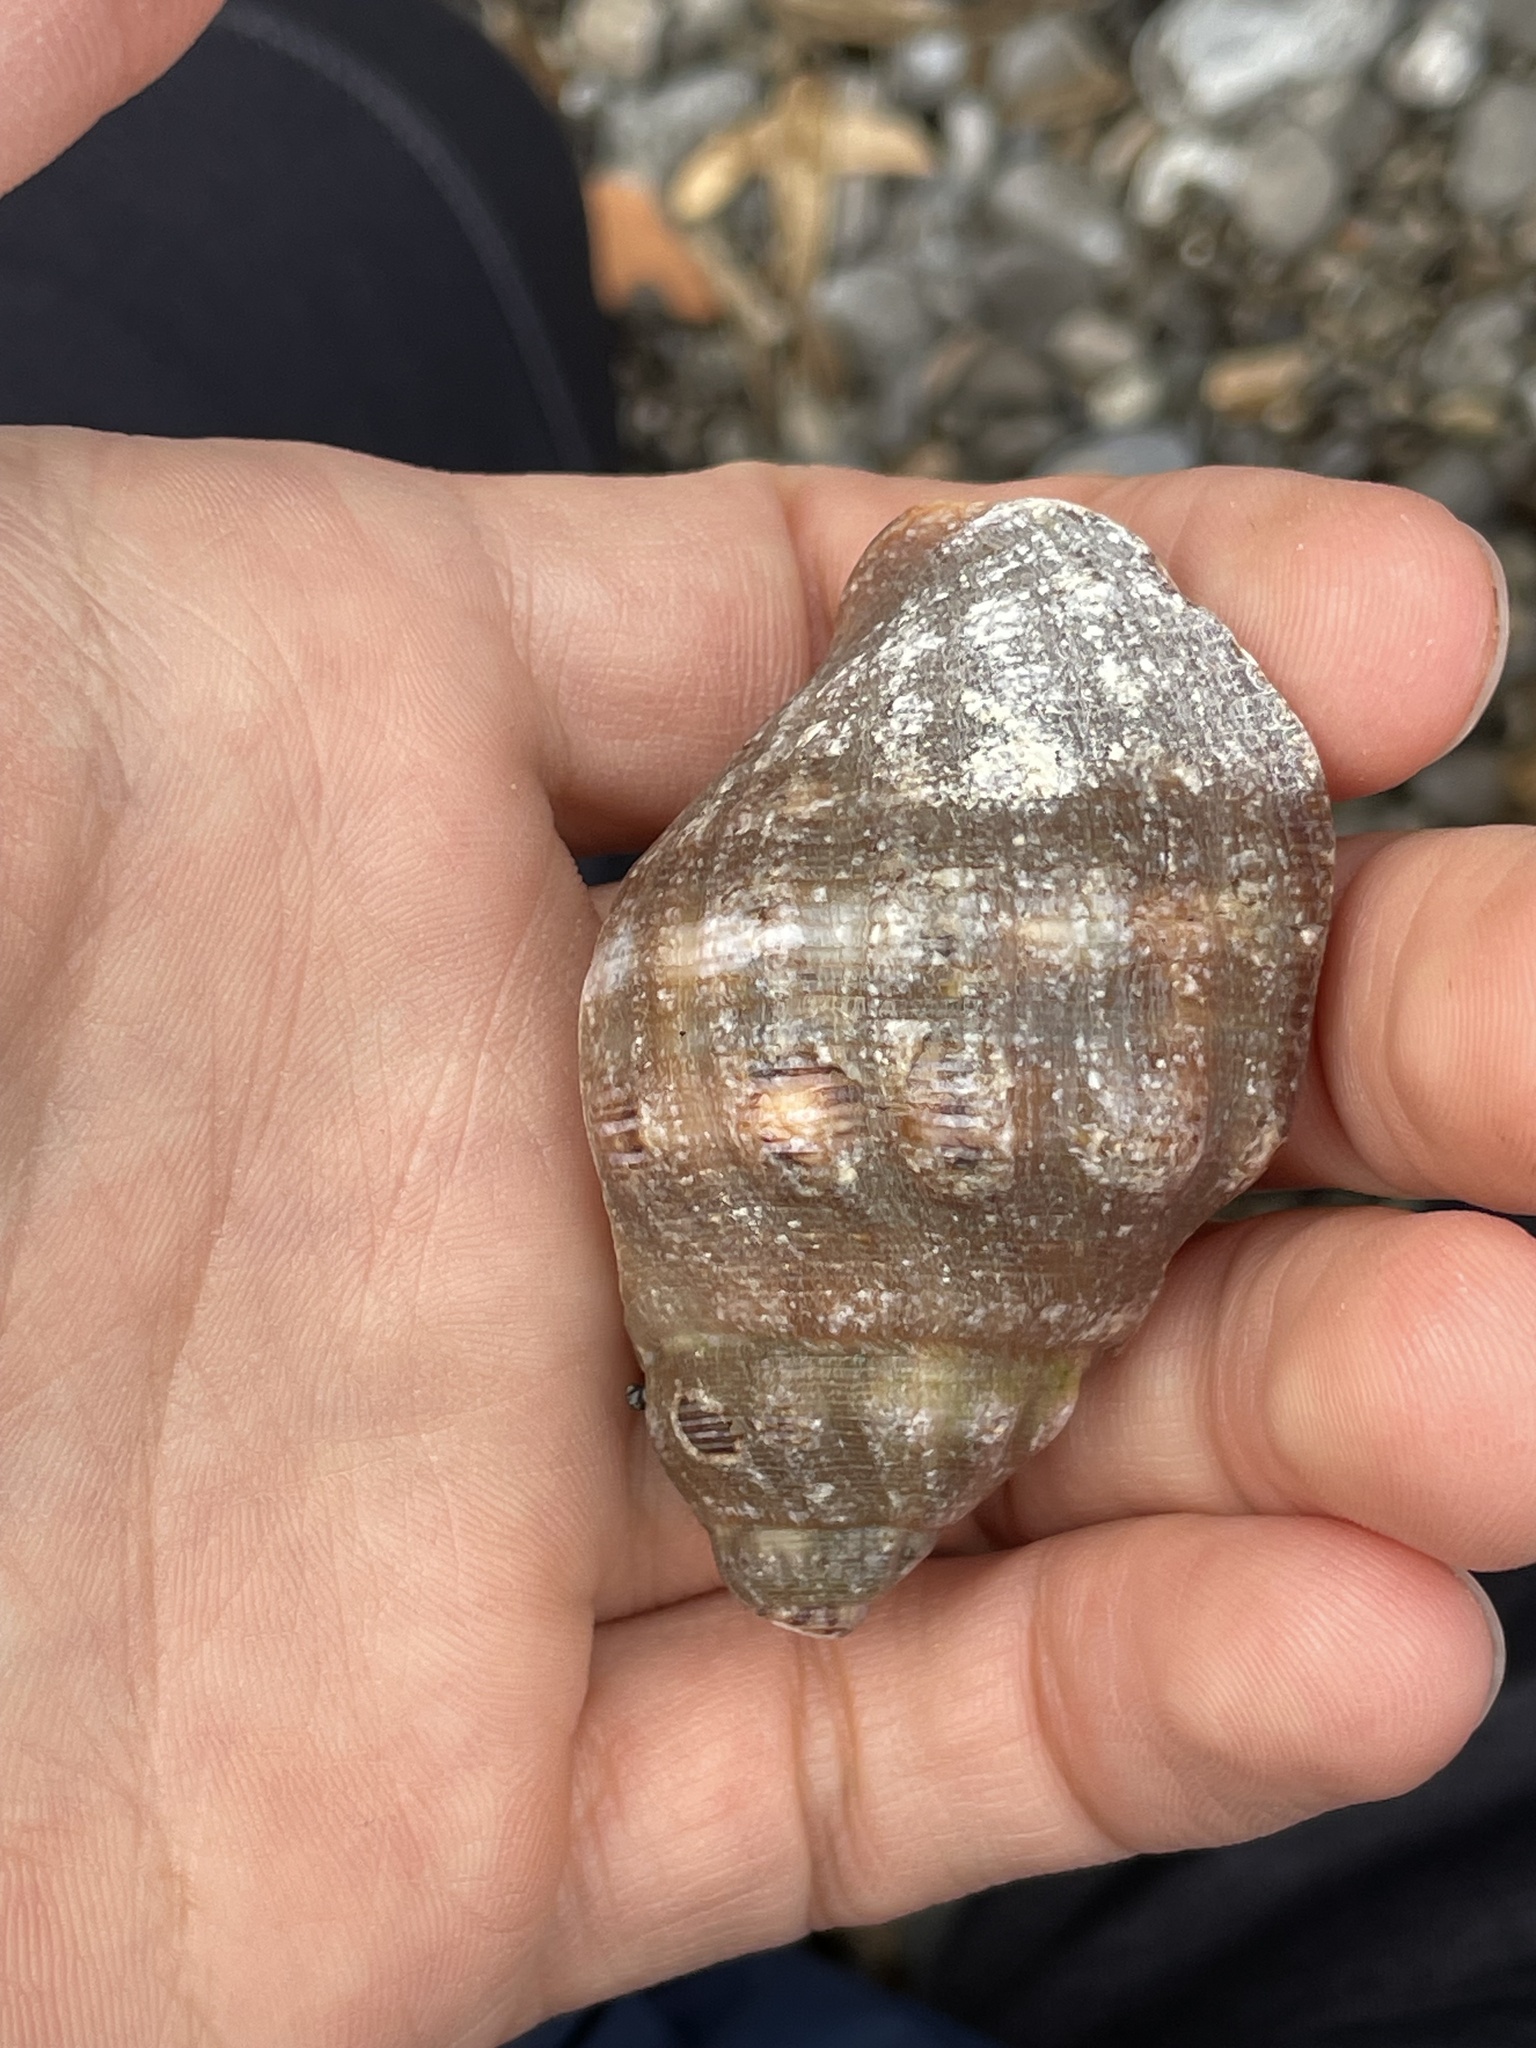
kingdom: Animalia
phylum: Mollusca
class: Gastropoda
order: Neogastropoda
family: Muricidae
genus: Stramonita
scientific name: Stramonita haemastoma
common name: Florida dog winkle
